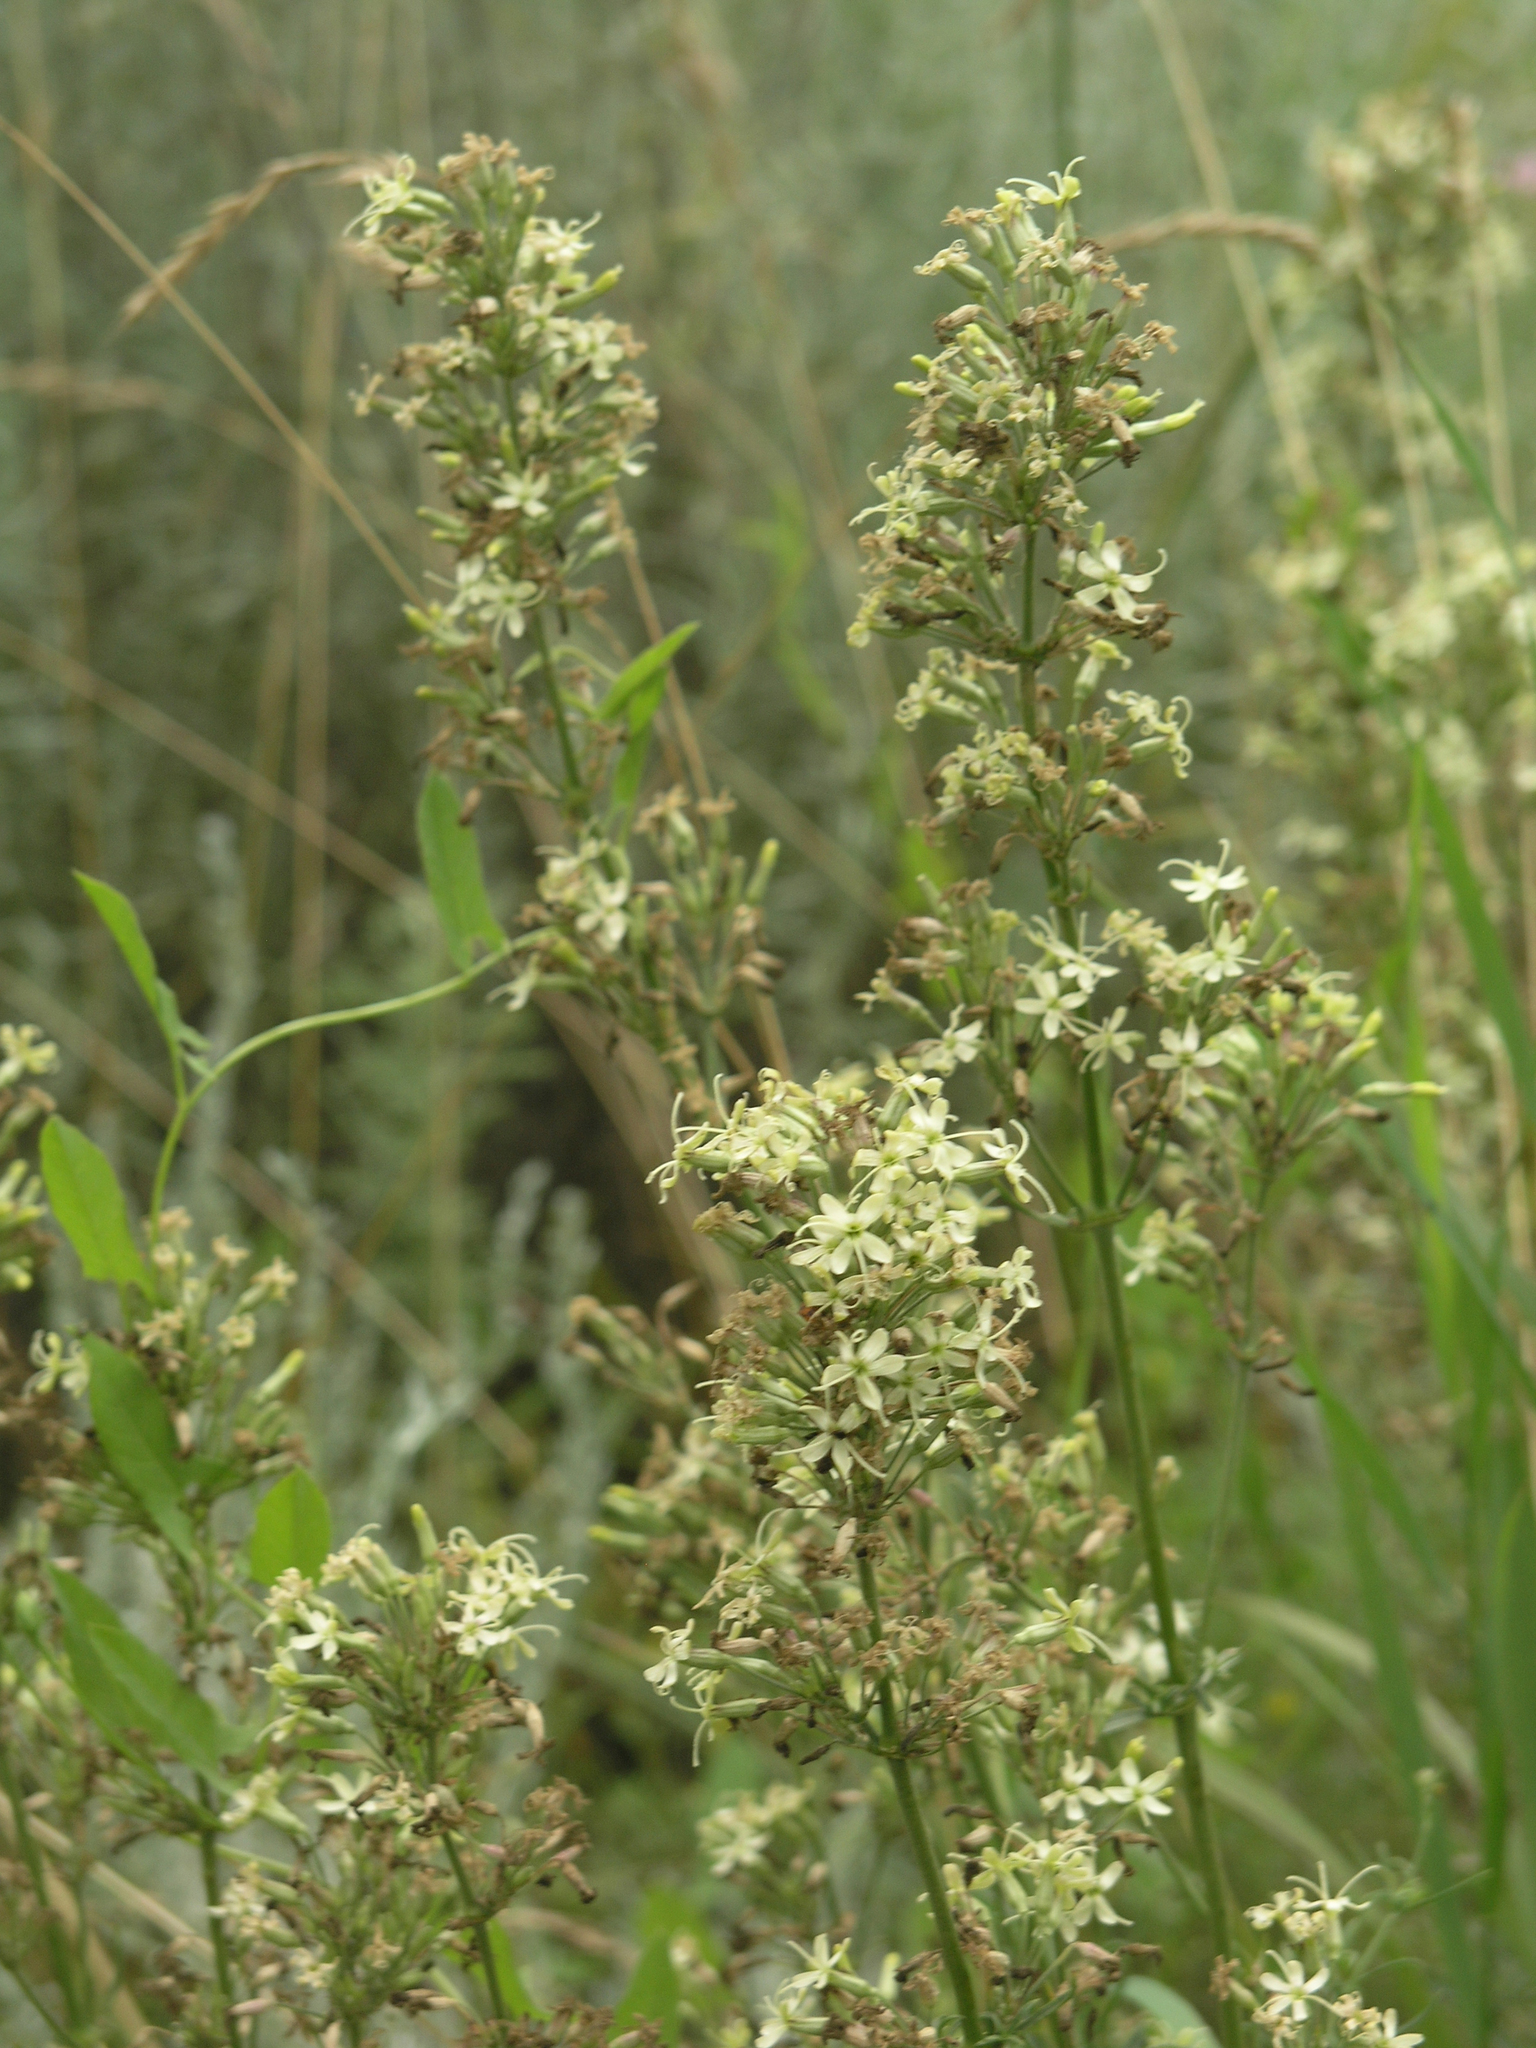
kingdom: Plantae
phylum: Tracheophyta
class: Magnoliopsida
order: Caryophyllales
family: Caryophyllaceae
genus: Silene
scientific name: Silene sibirica
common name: Siberian catchfly
